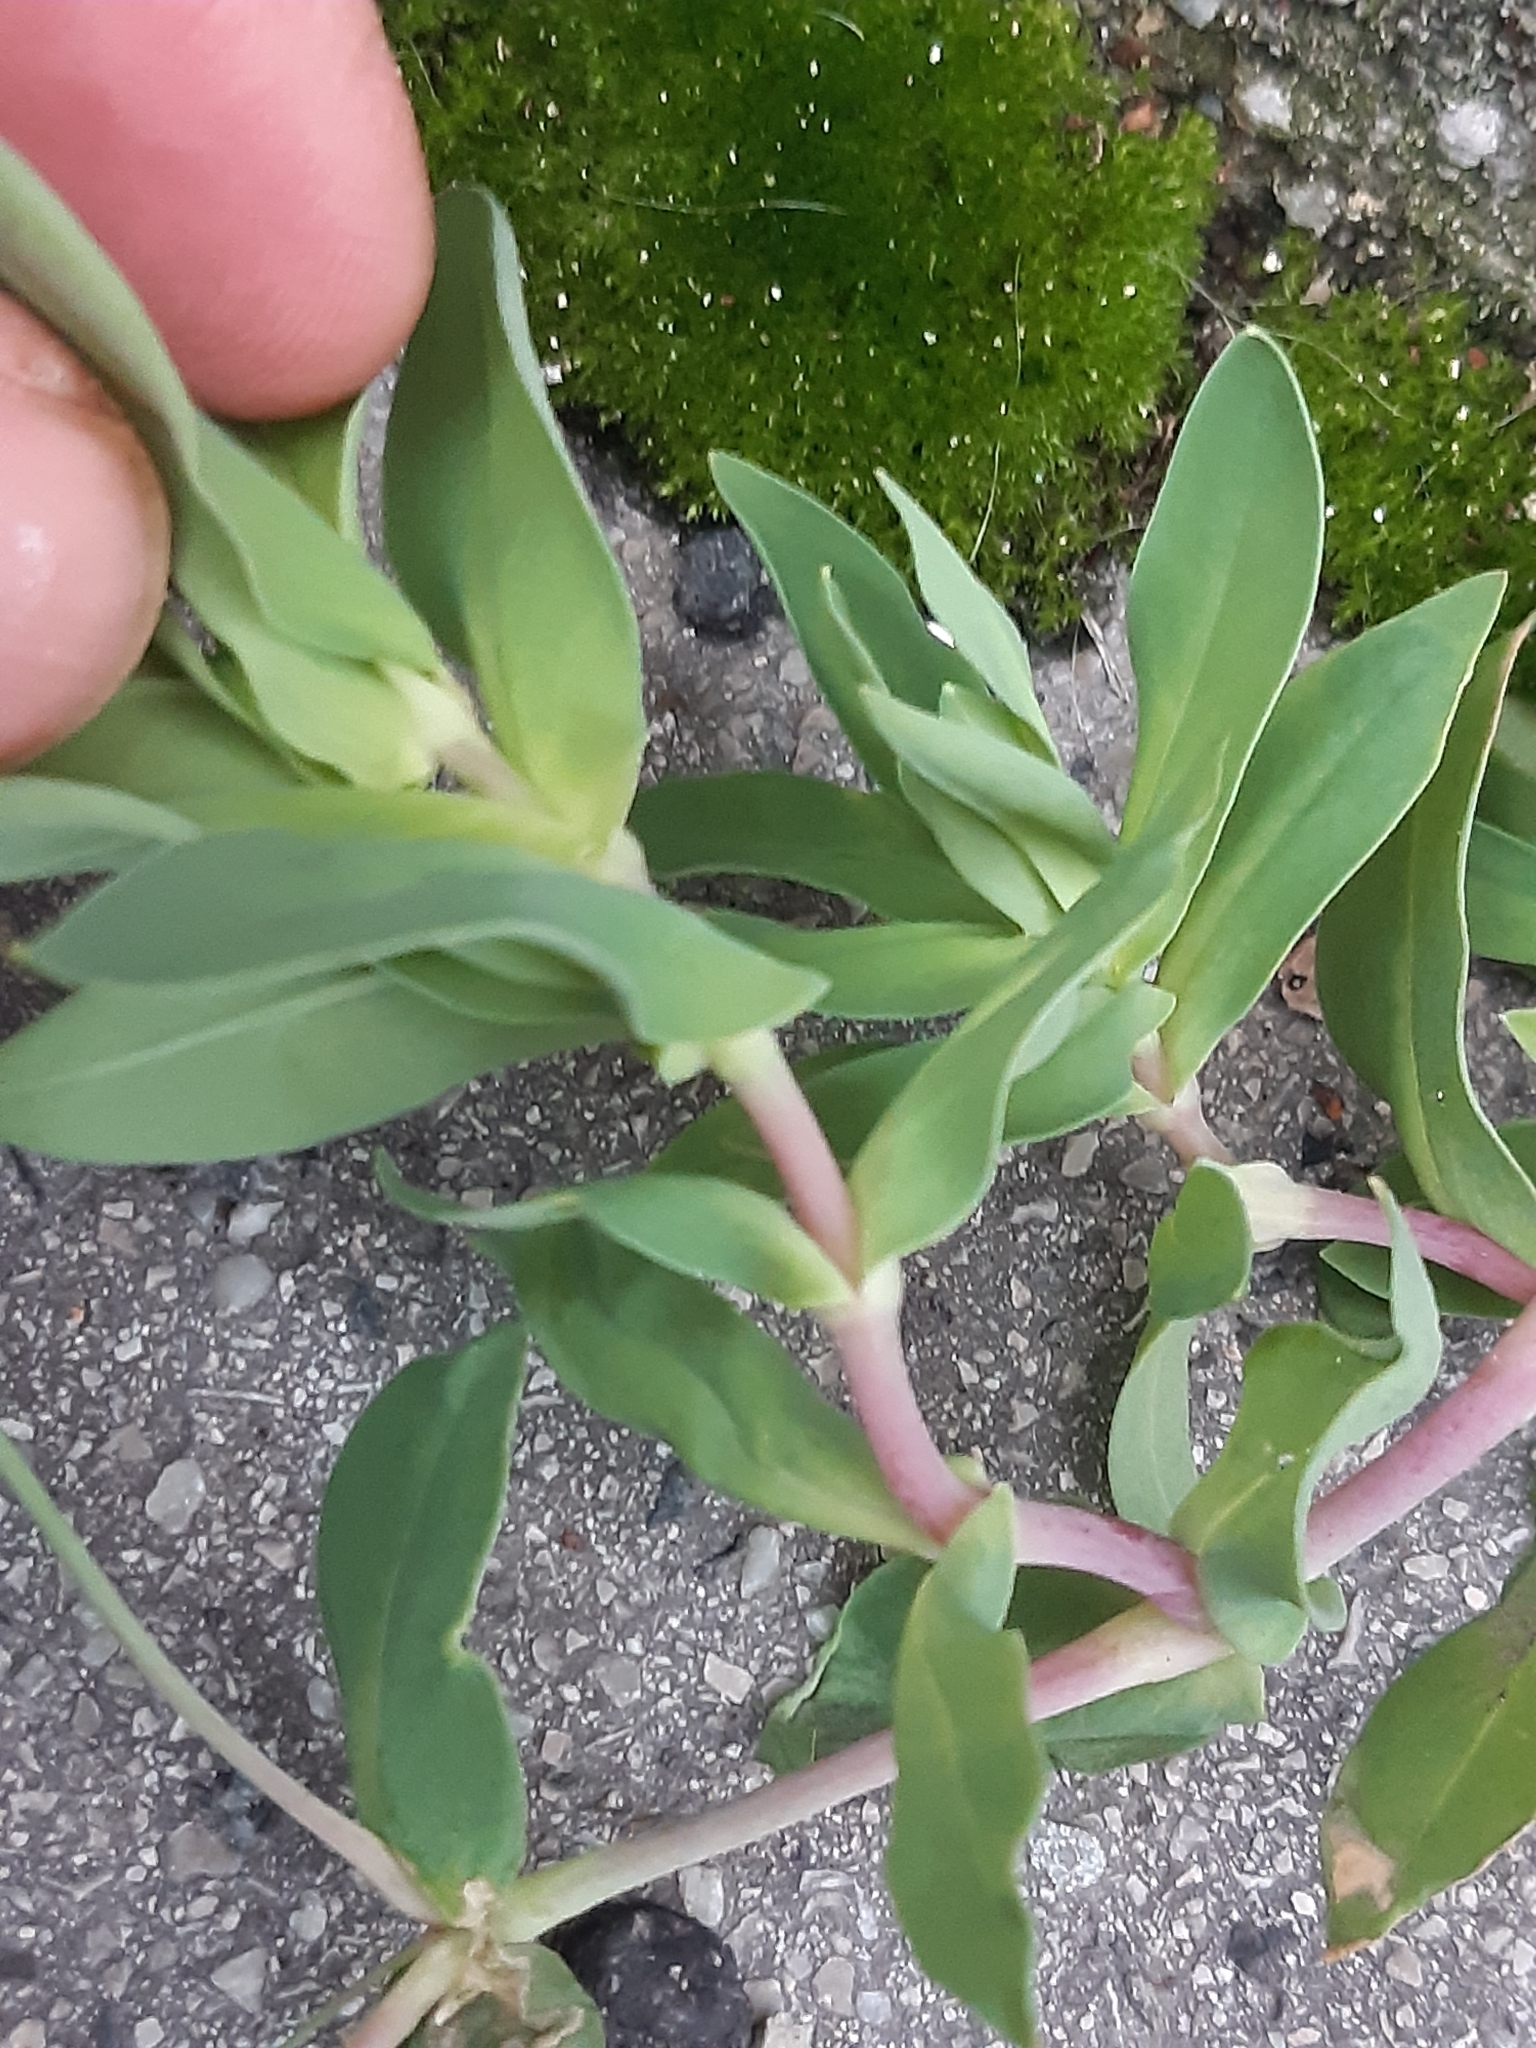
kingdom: Plantae
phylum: Tracheophyta
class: Magnoliopsida
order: Caryophyllales
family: Caryophyllaceae
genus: Atocion
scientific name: Atocion armeria
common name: Sweet william catchfly
